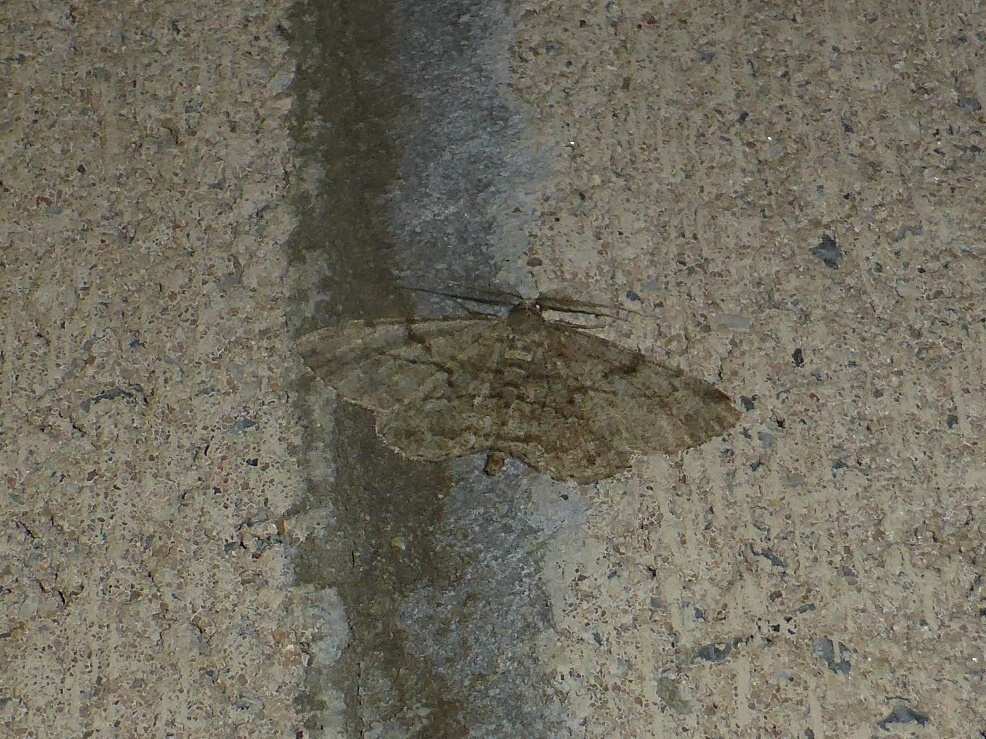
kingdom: Animalia
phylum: Arthropoda
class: Insecta
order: Lepidoptera
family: Geometridae
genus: Peribatodes
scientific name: Peribatodes rhomboidaria
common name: Willow beauty
